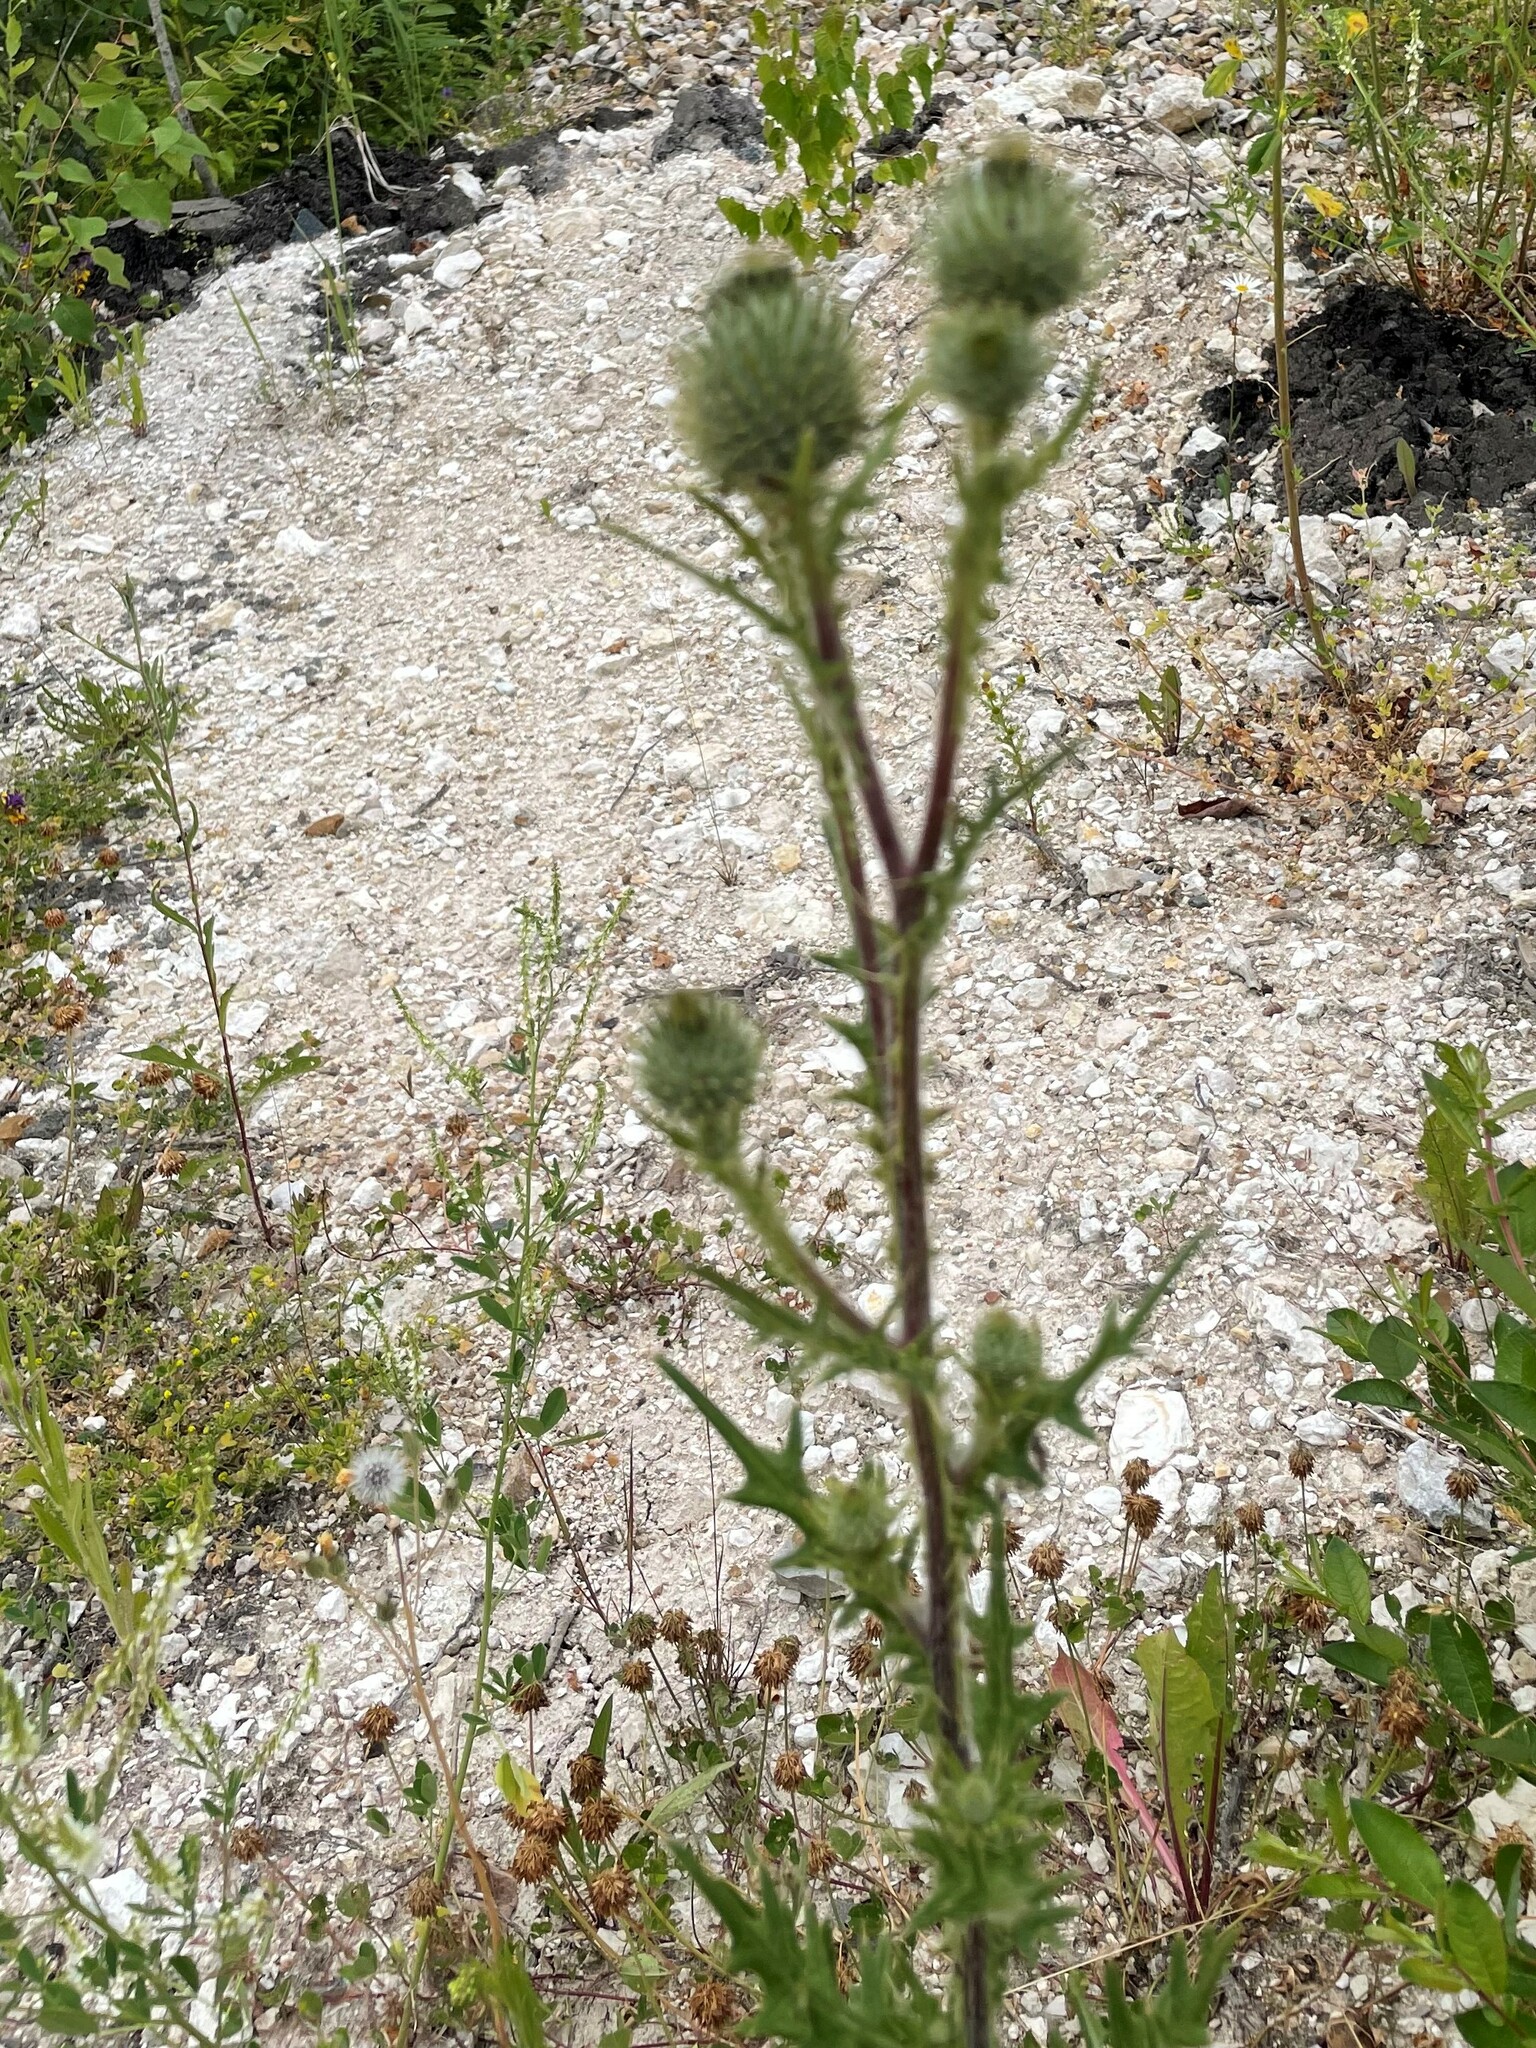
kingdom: Plantae
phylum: Tracheophyta
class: Magnoliopsida
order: Asterales
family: Asteraceae
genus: Cirsium
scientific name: Cirsium vulgare
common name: Bull thistle
